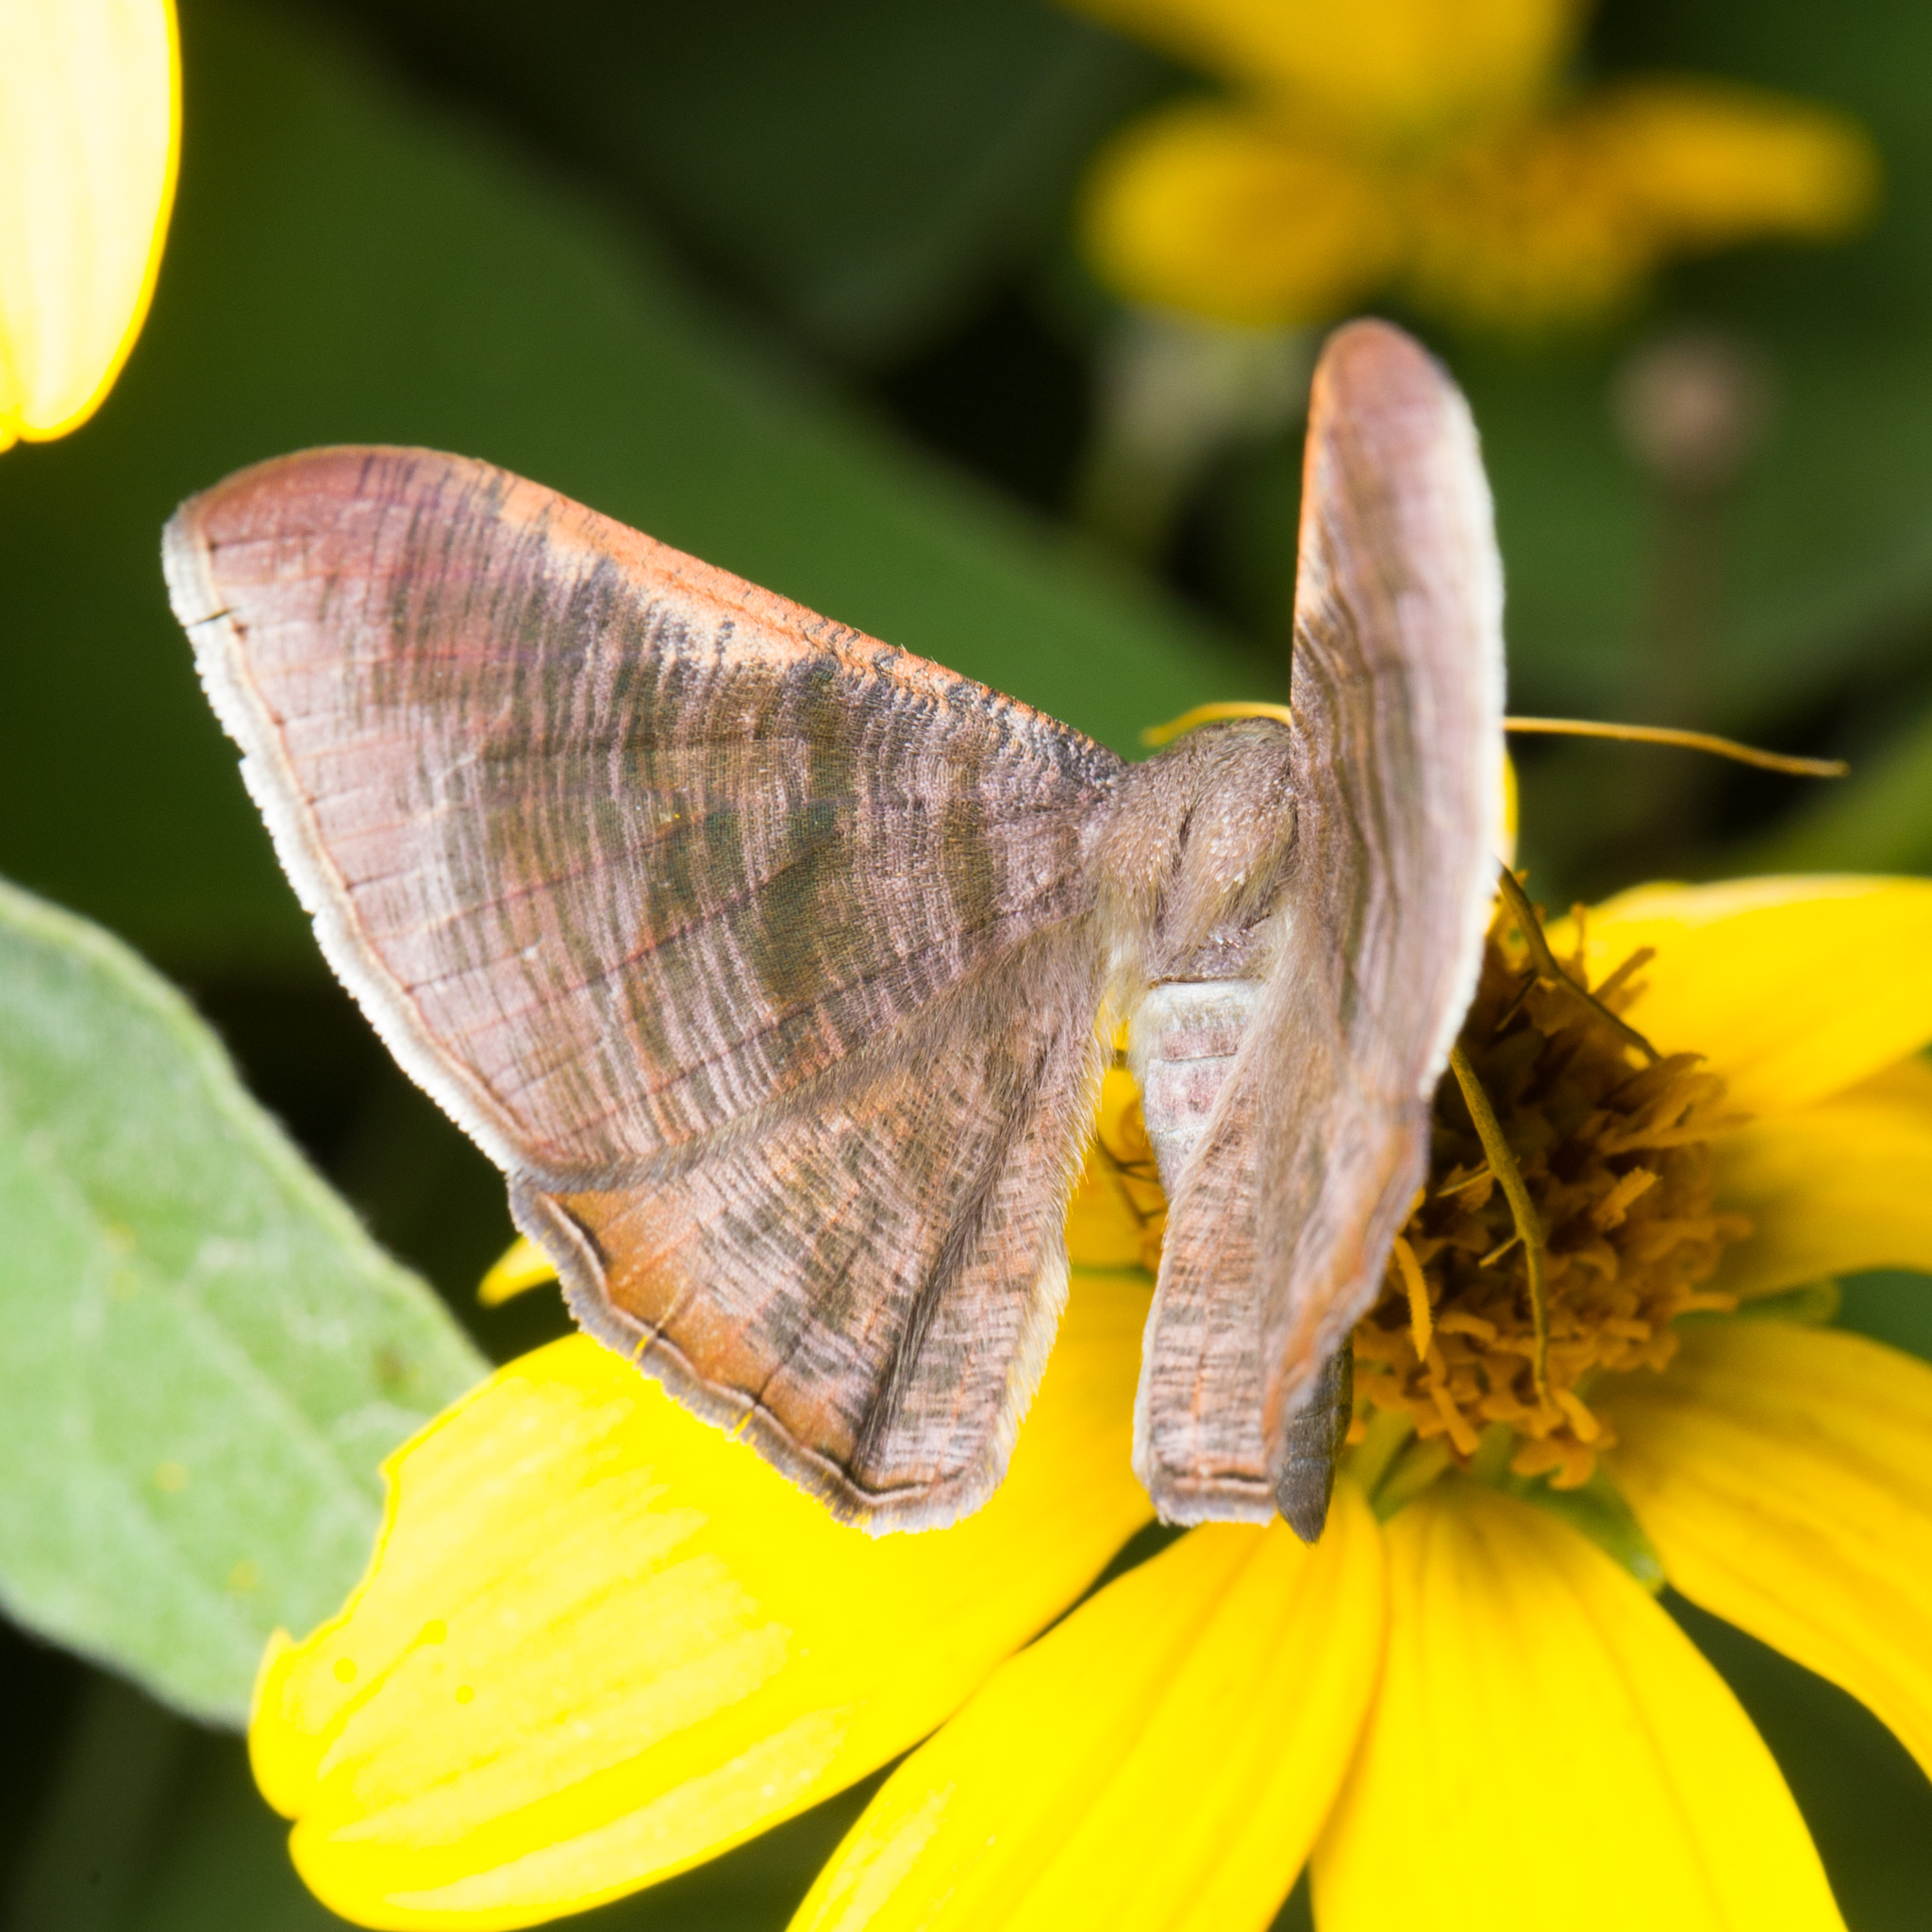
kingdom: Animalia
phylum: Arthropoda
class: Insecta
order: Lepidoptera
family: Geometridae
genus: Sphacelodes
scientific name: Sphacelodes vulneraria
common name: Looper moth
